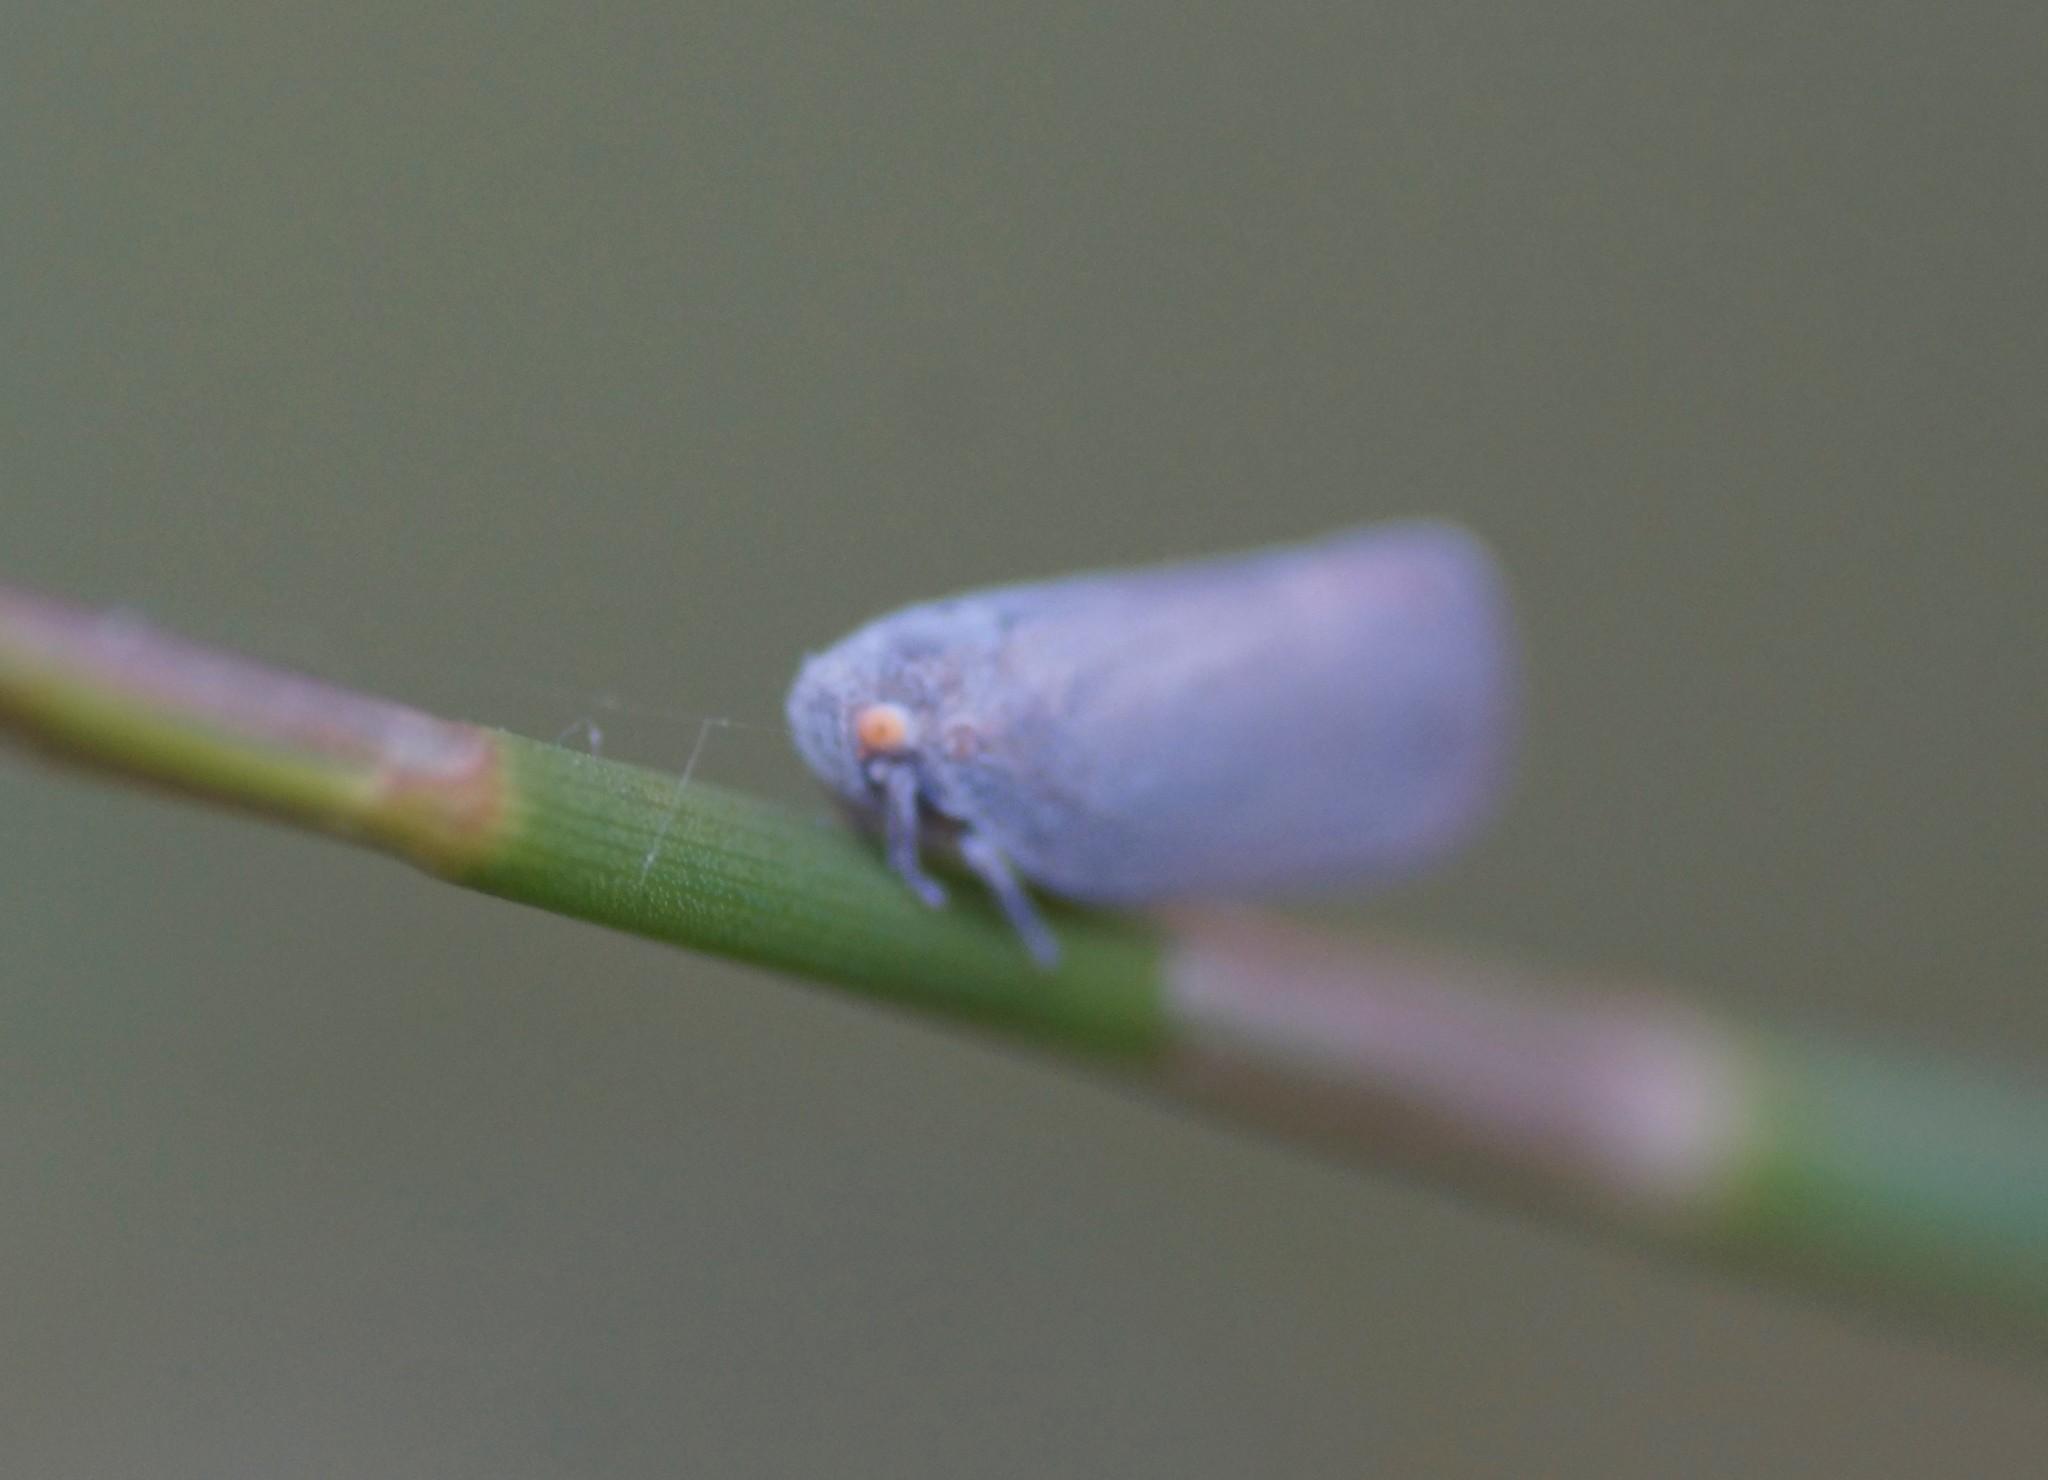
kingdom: Animalia
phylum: Arthropoda
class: Insecta
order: Hemiptera
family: Flatidae
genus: Anzora
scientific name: Anzora unicolor
